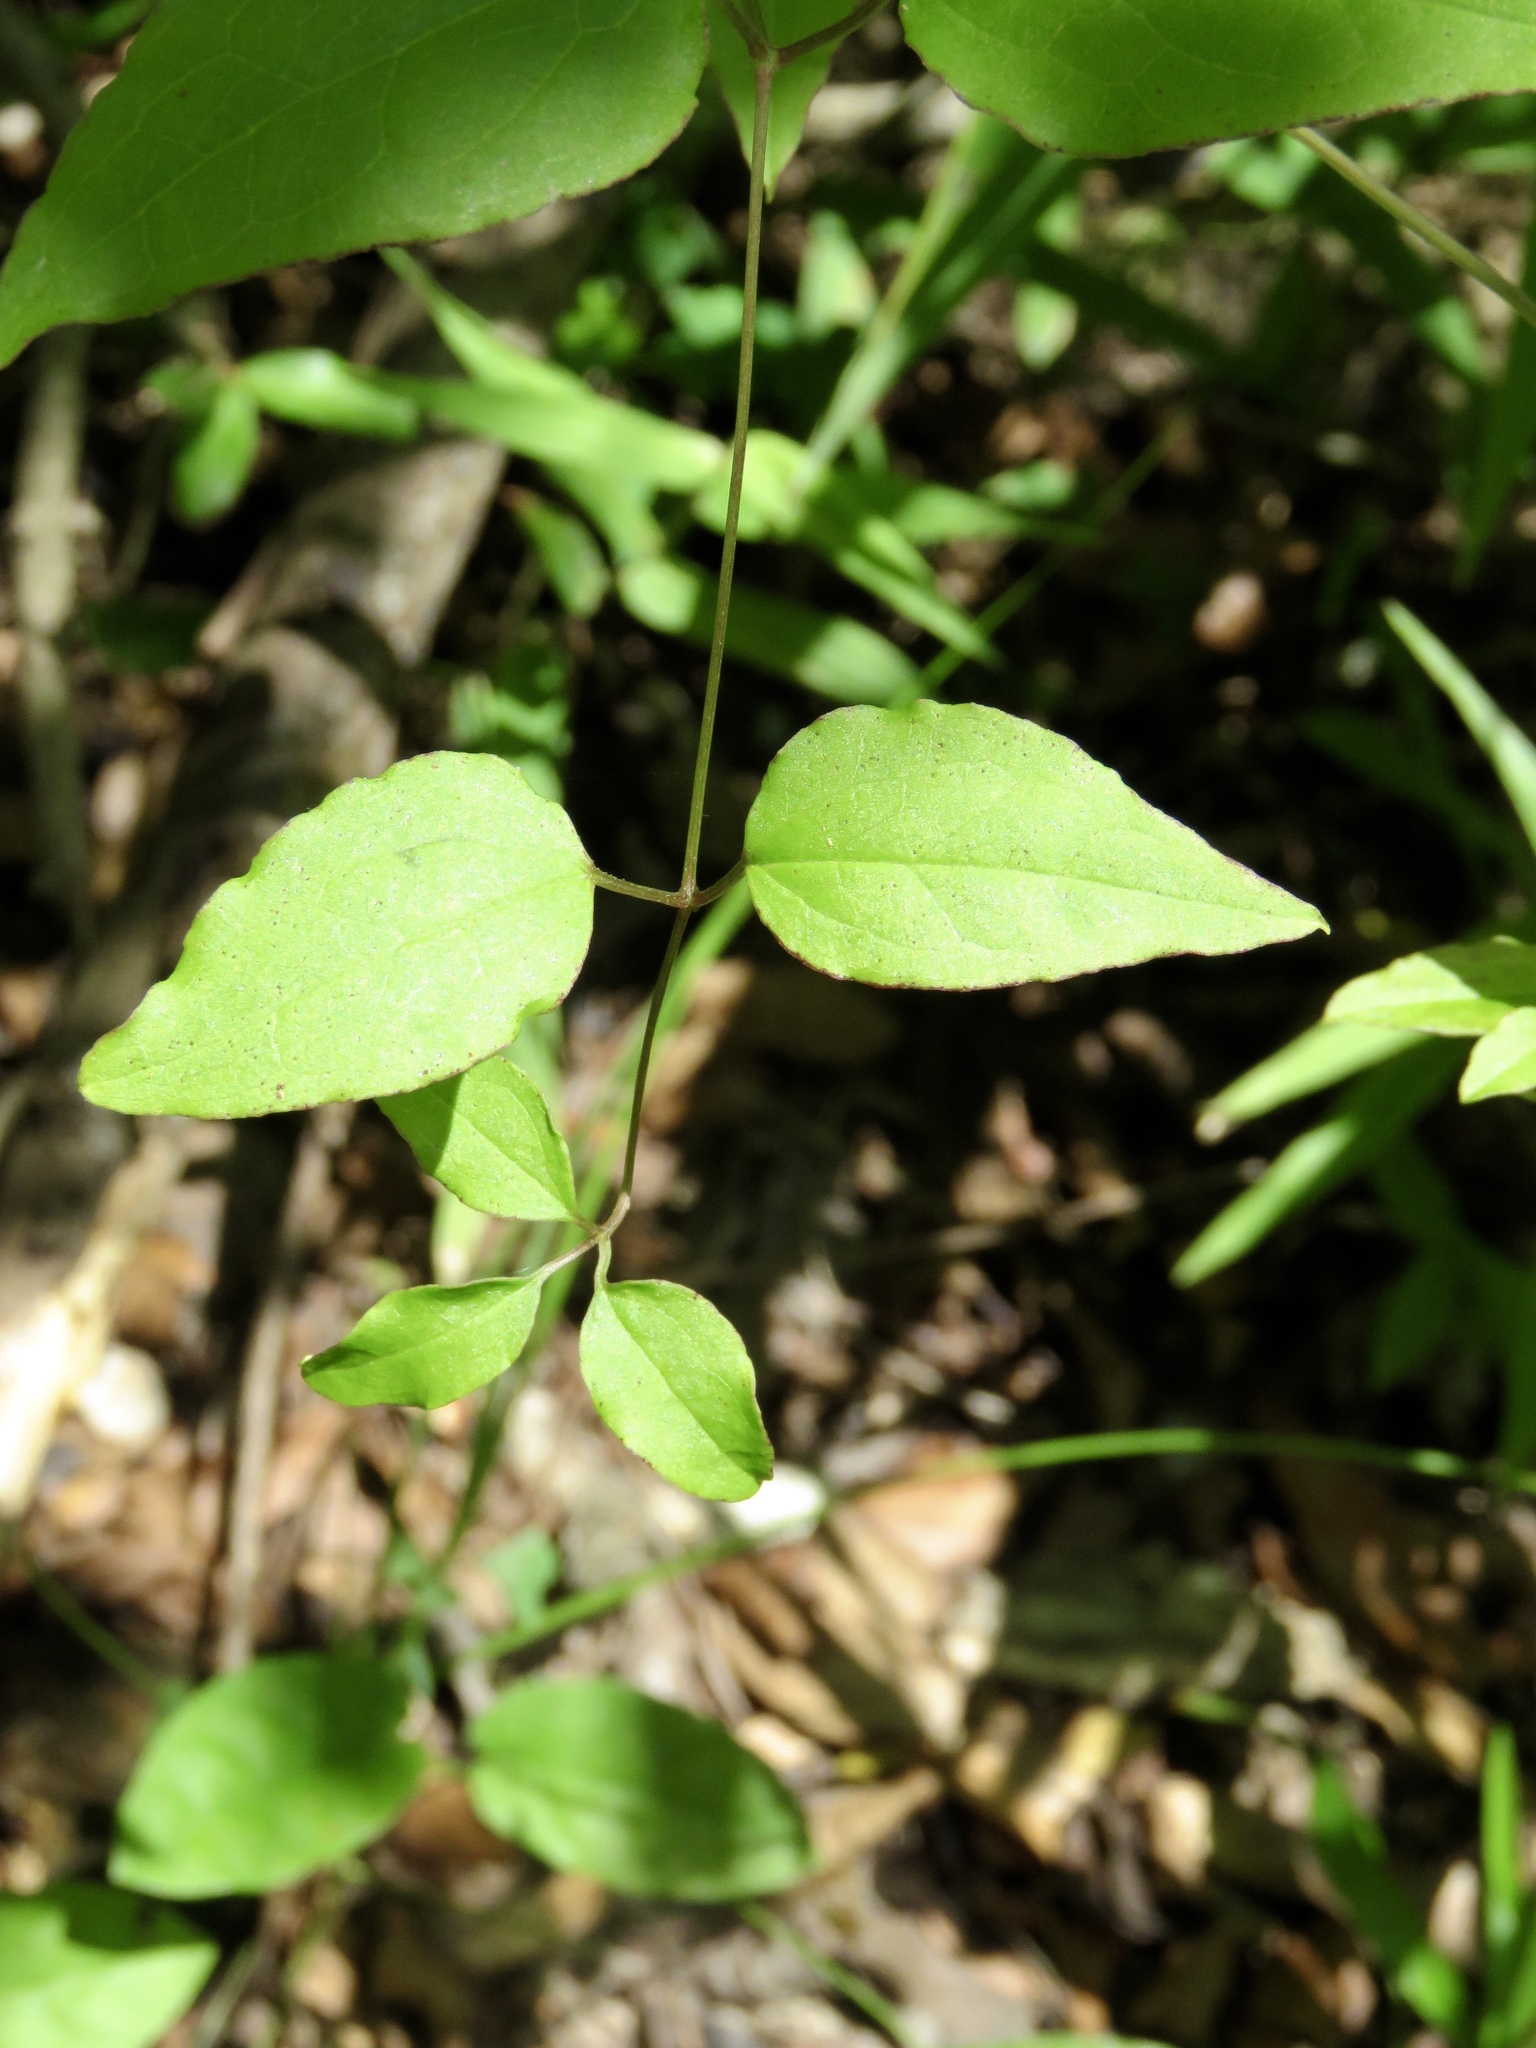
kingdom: Plantae
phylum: Tracheophyta
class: Magnoliopsida
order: Ranunculales
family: Ranunculaceae
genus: Clematis
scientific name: Clematis crispa
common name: Curly clematis
